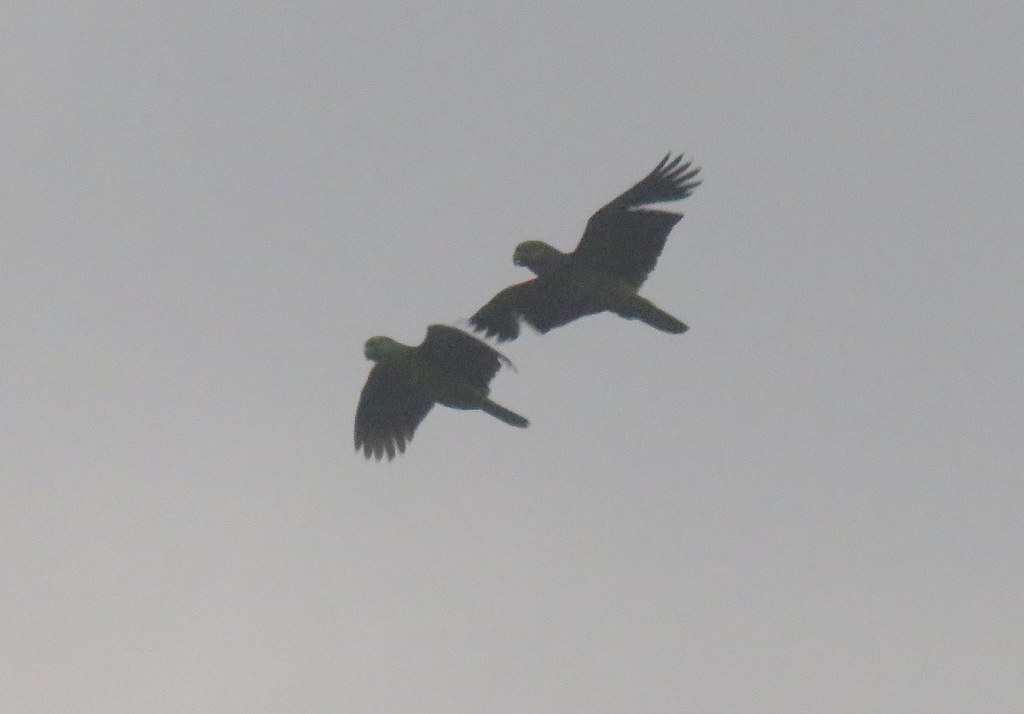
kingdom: Animalia
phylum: Chordata
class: Aves
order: Psittaciformes
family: Psittacidae
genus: Amazona
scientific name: Amazona aestiva
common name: Turquoise-fronted amazon
